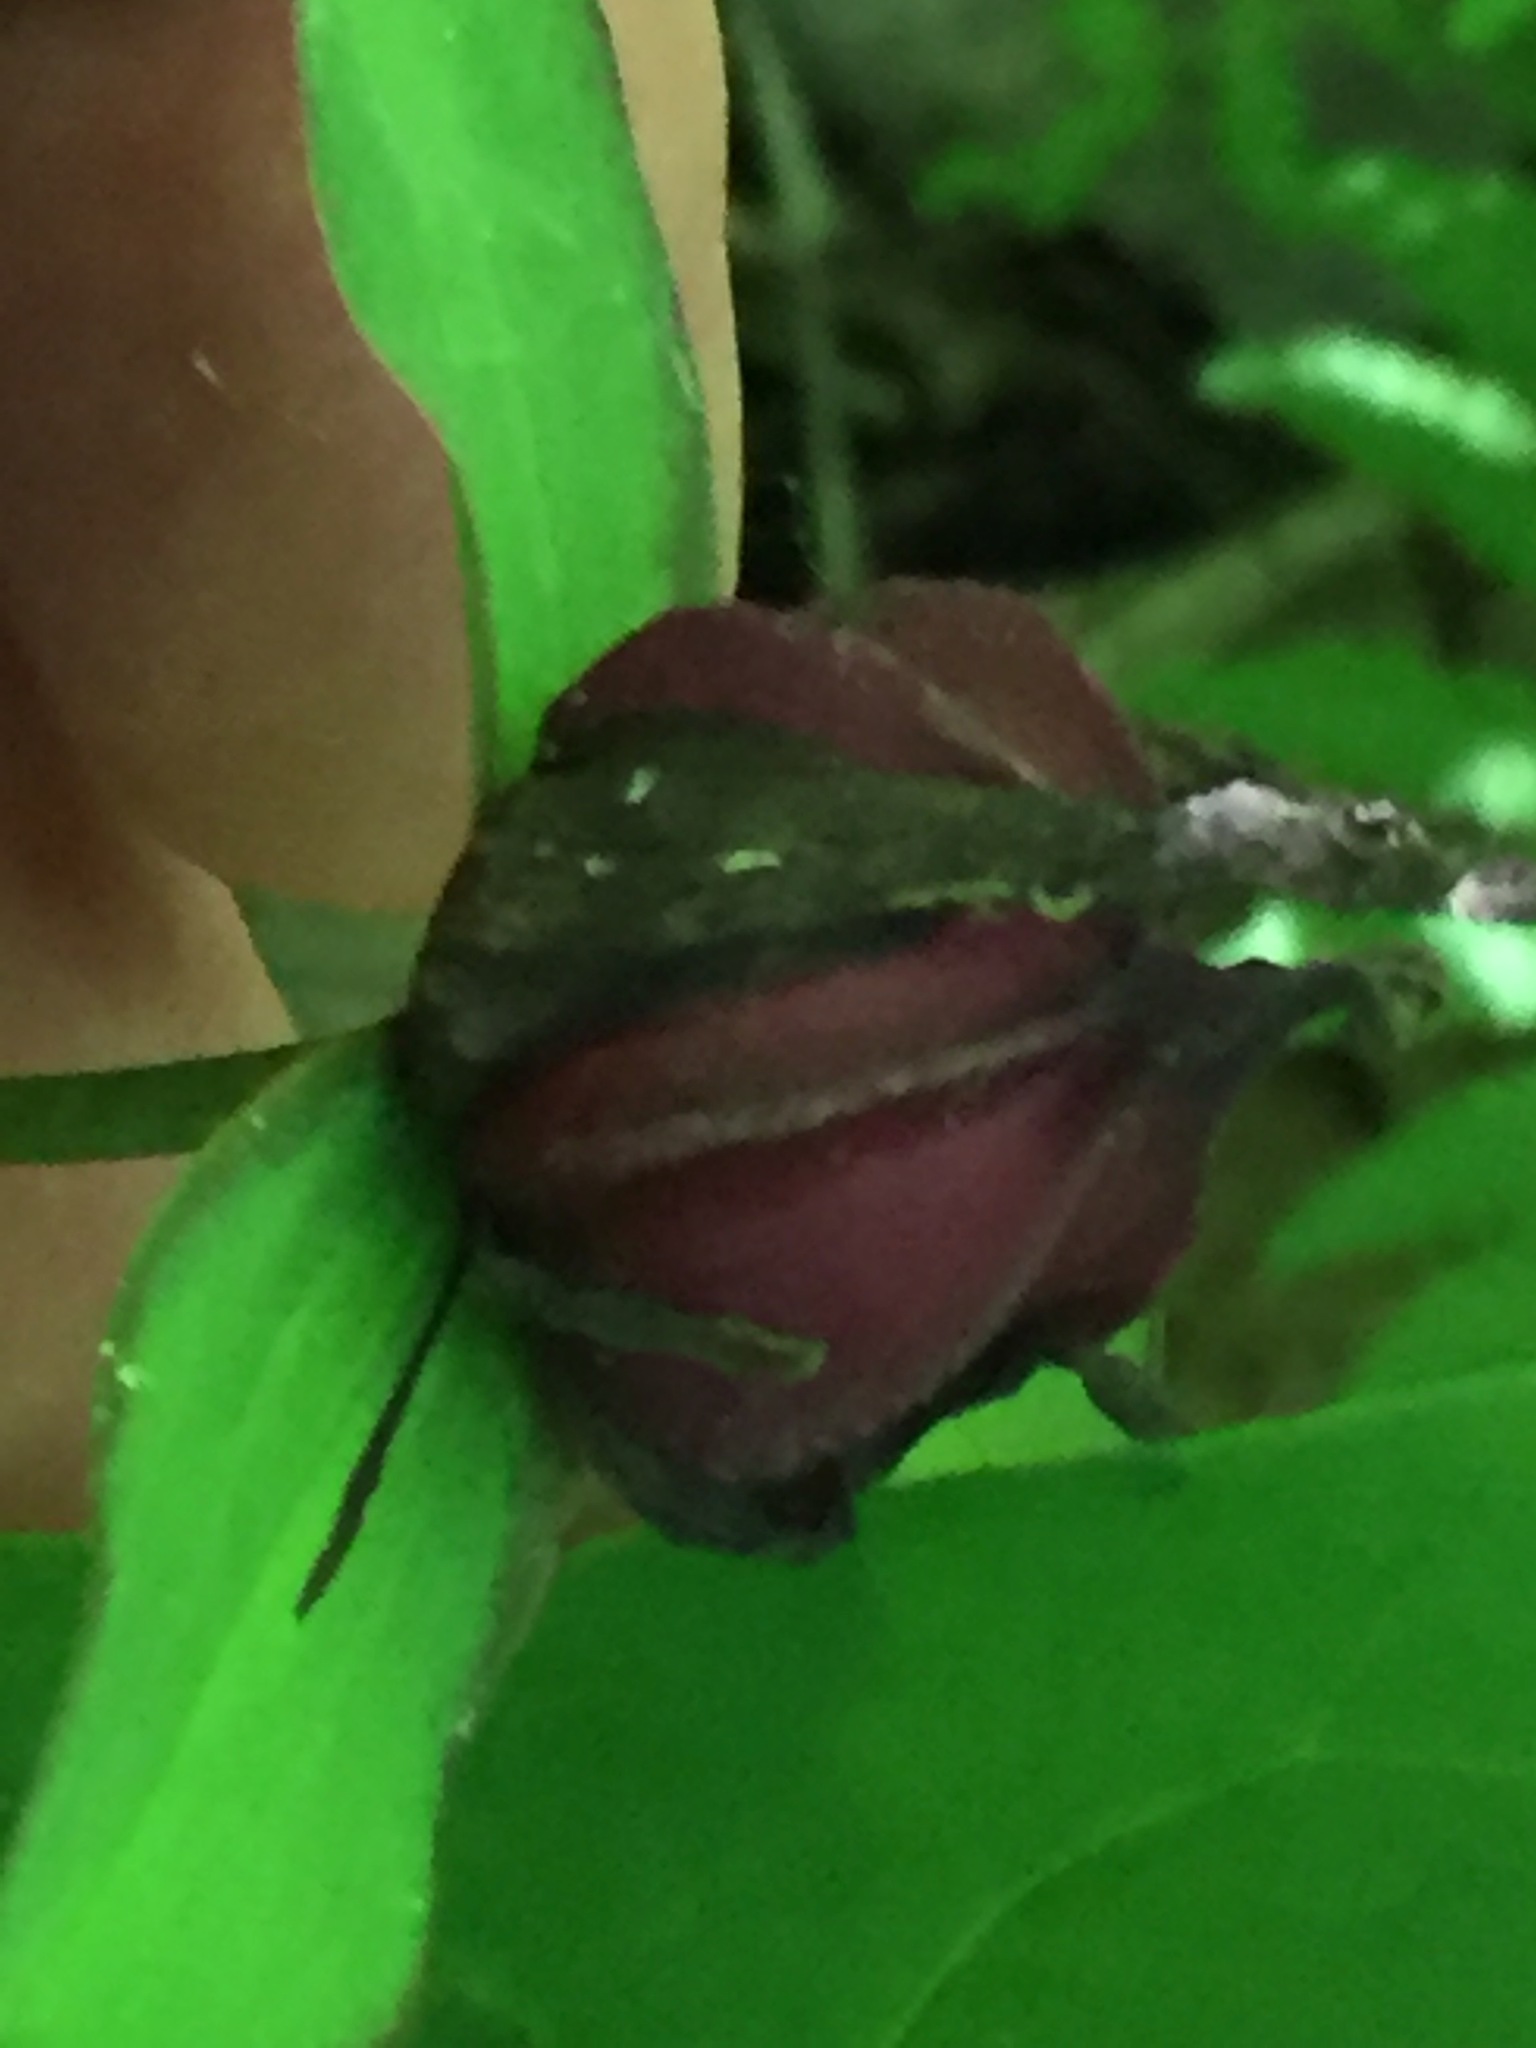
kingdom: Plantae
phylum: Tracheophyta
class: Liliopsida
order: Liliales
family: Melanthiaceae
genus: Trillium
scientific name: Trillium erectum
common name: Purple trillium
